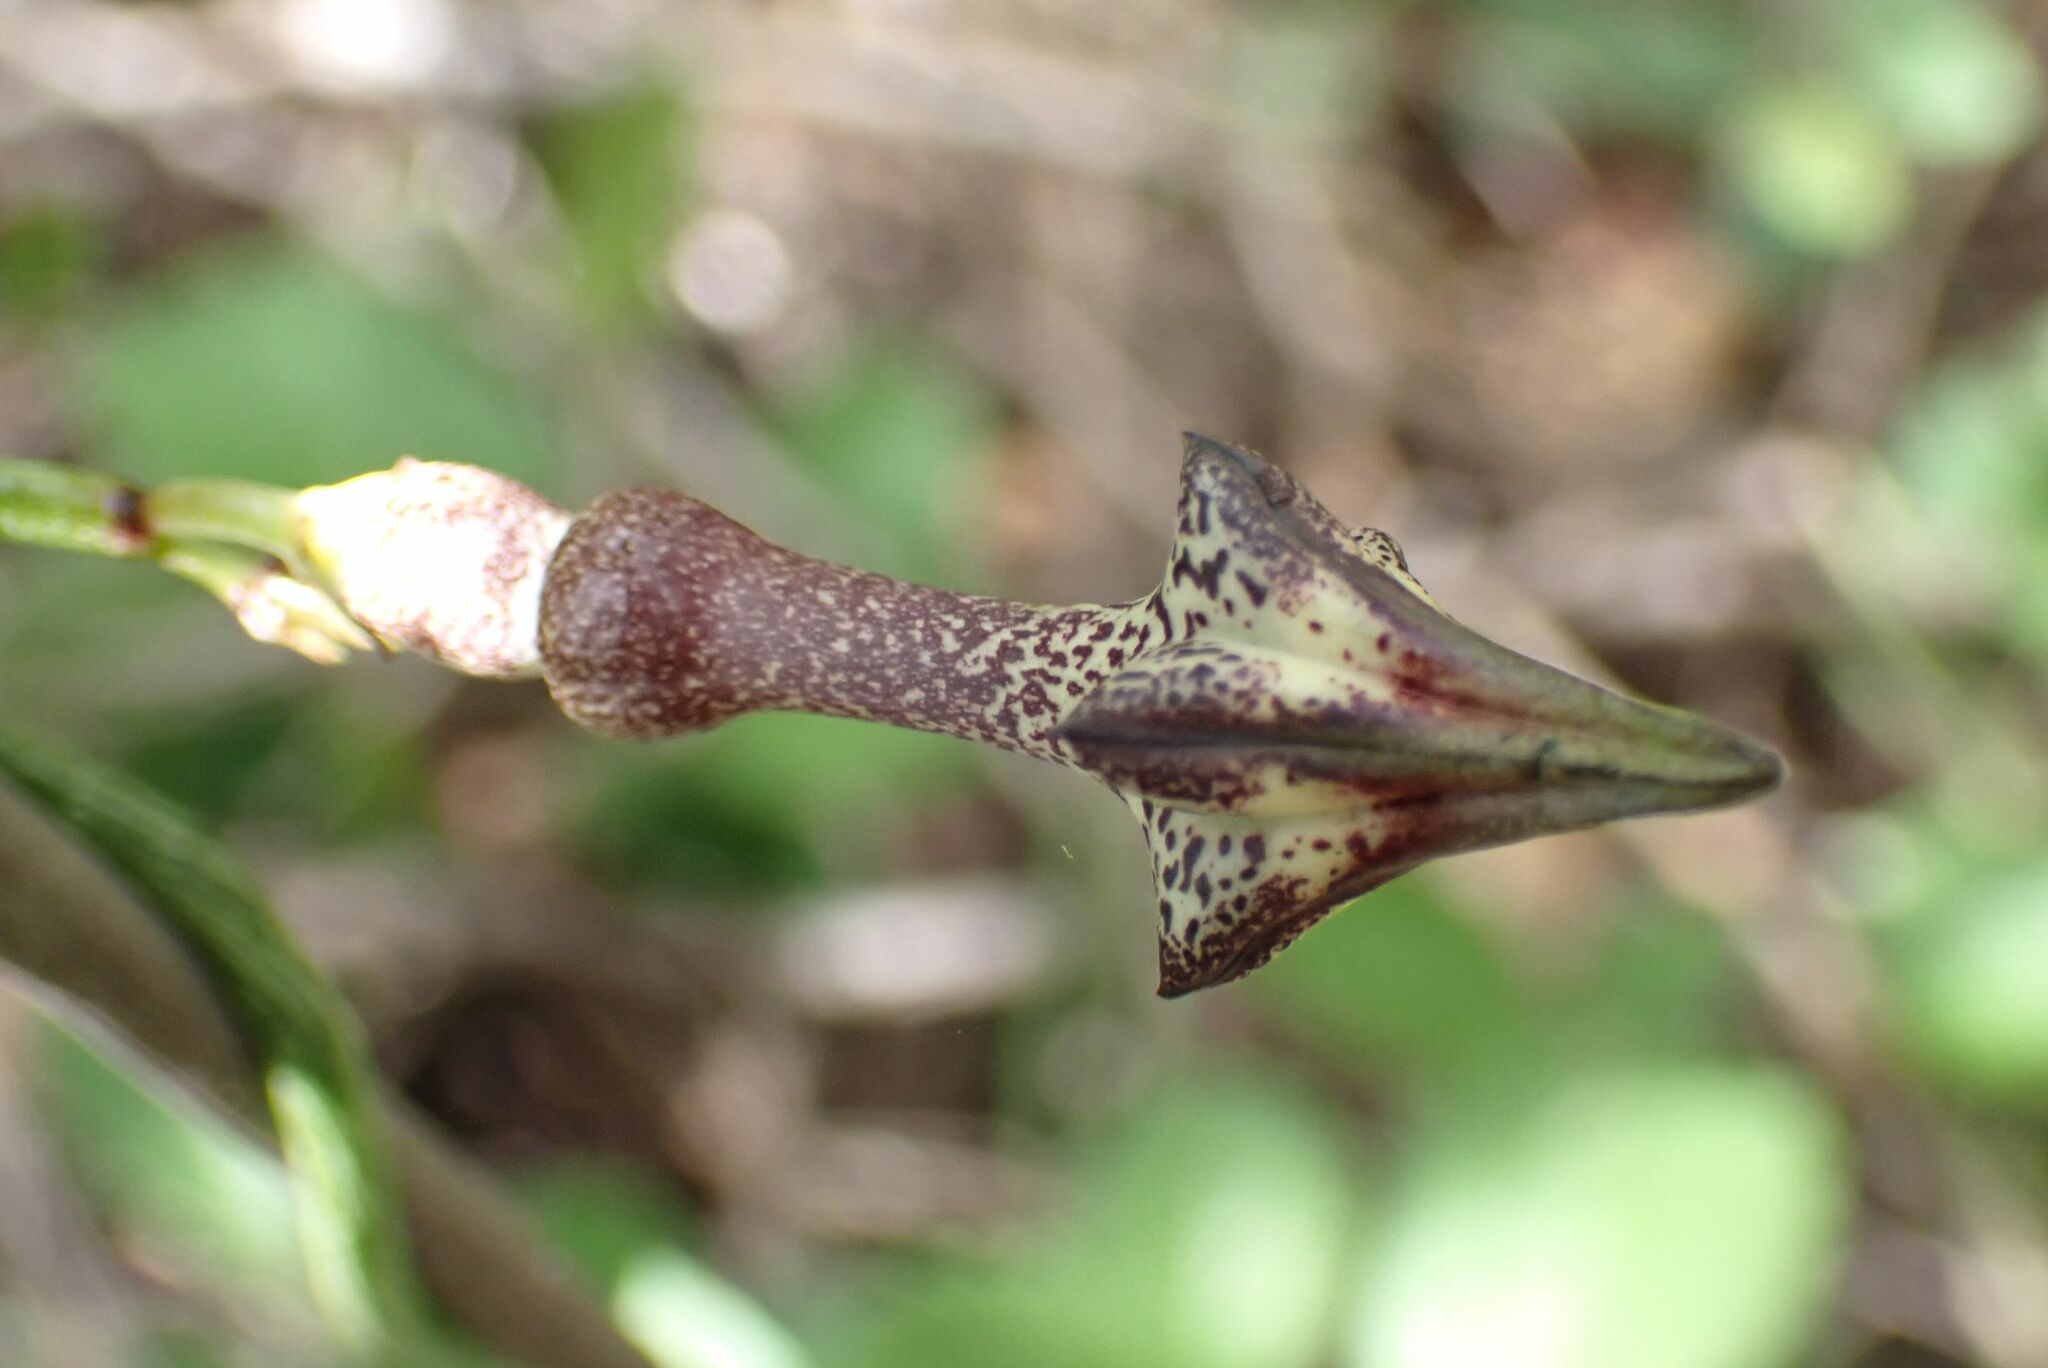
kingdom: Plantae
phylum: Tracheophyta
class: Magnoliopsida
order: Gentianales
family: Apocynaceae
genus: Ceropegia
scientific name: Ceropegia nilotica
